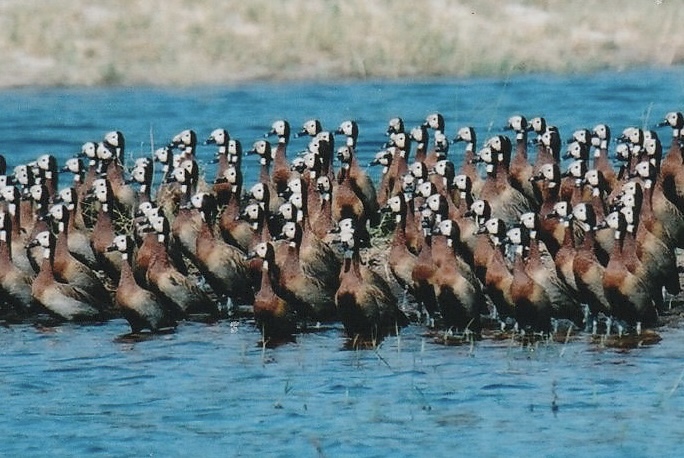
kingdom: Animalia
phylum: Chordata
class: Aves
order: Anseriformes
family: Anatidae
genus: Dendrocygna
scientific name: Dendrocygna viduata
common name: White-faced whistling duck
